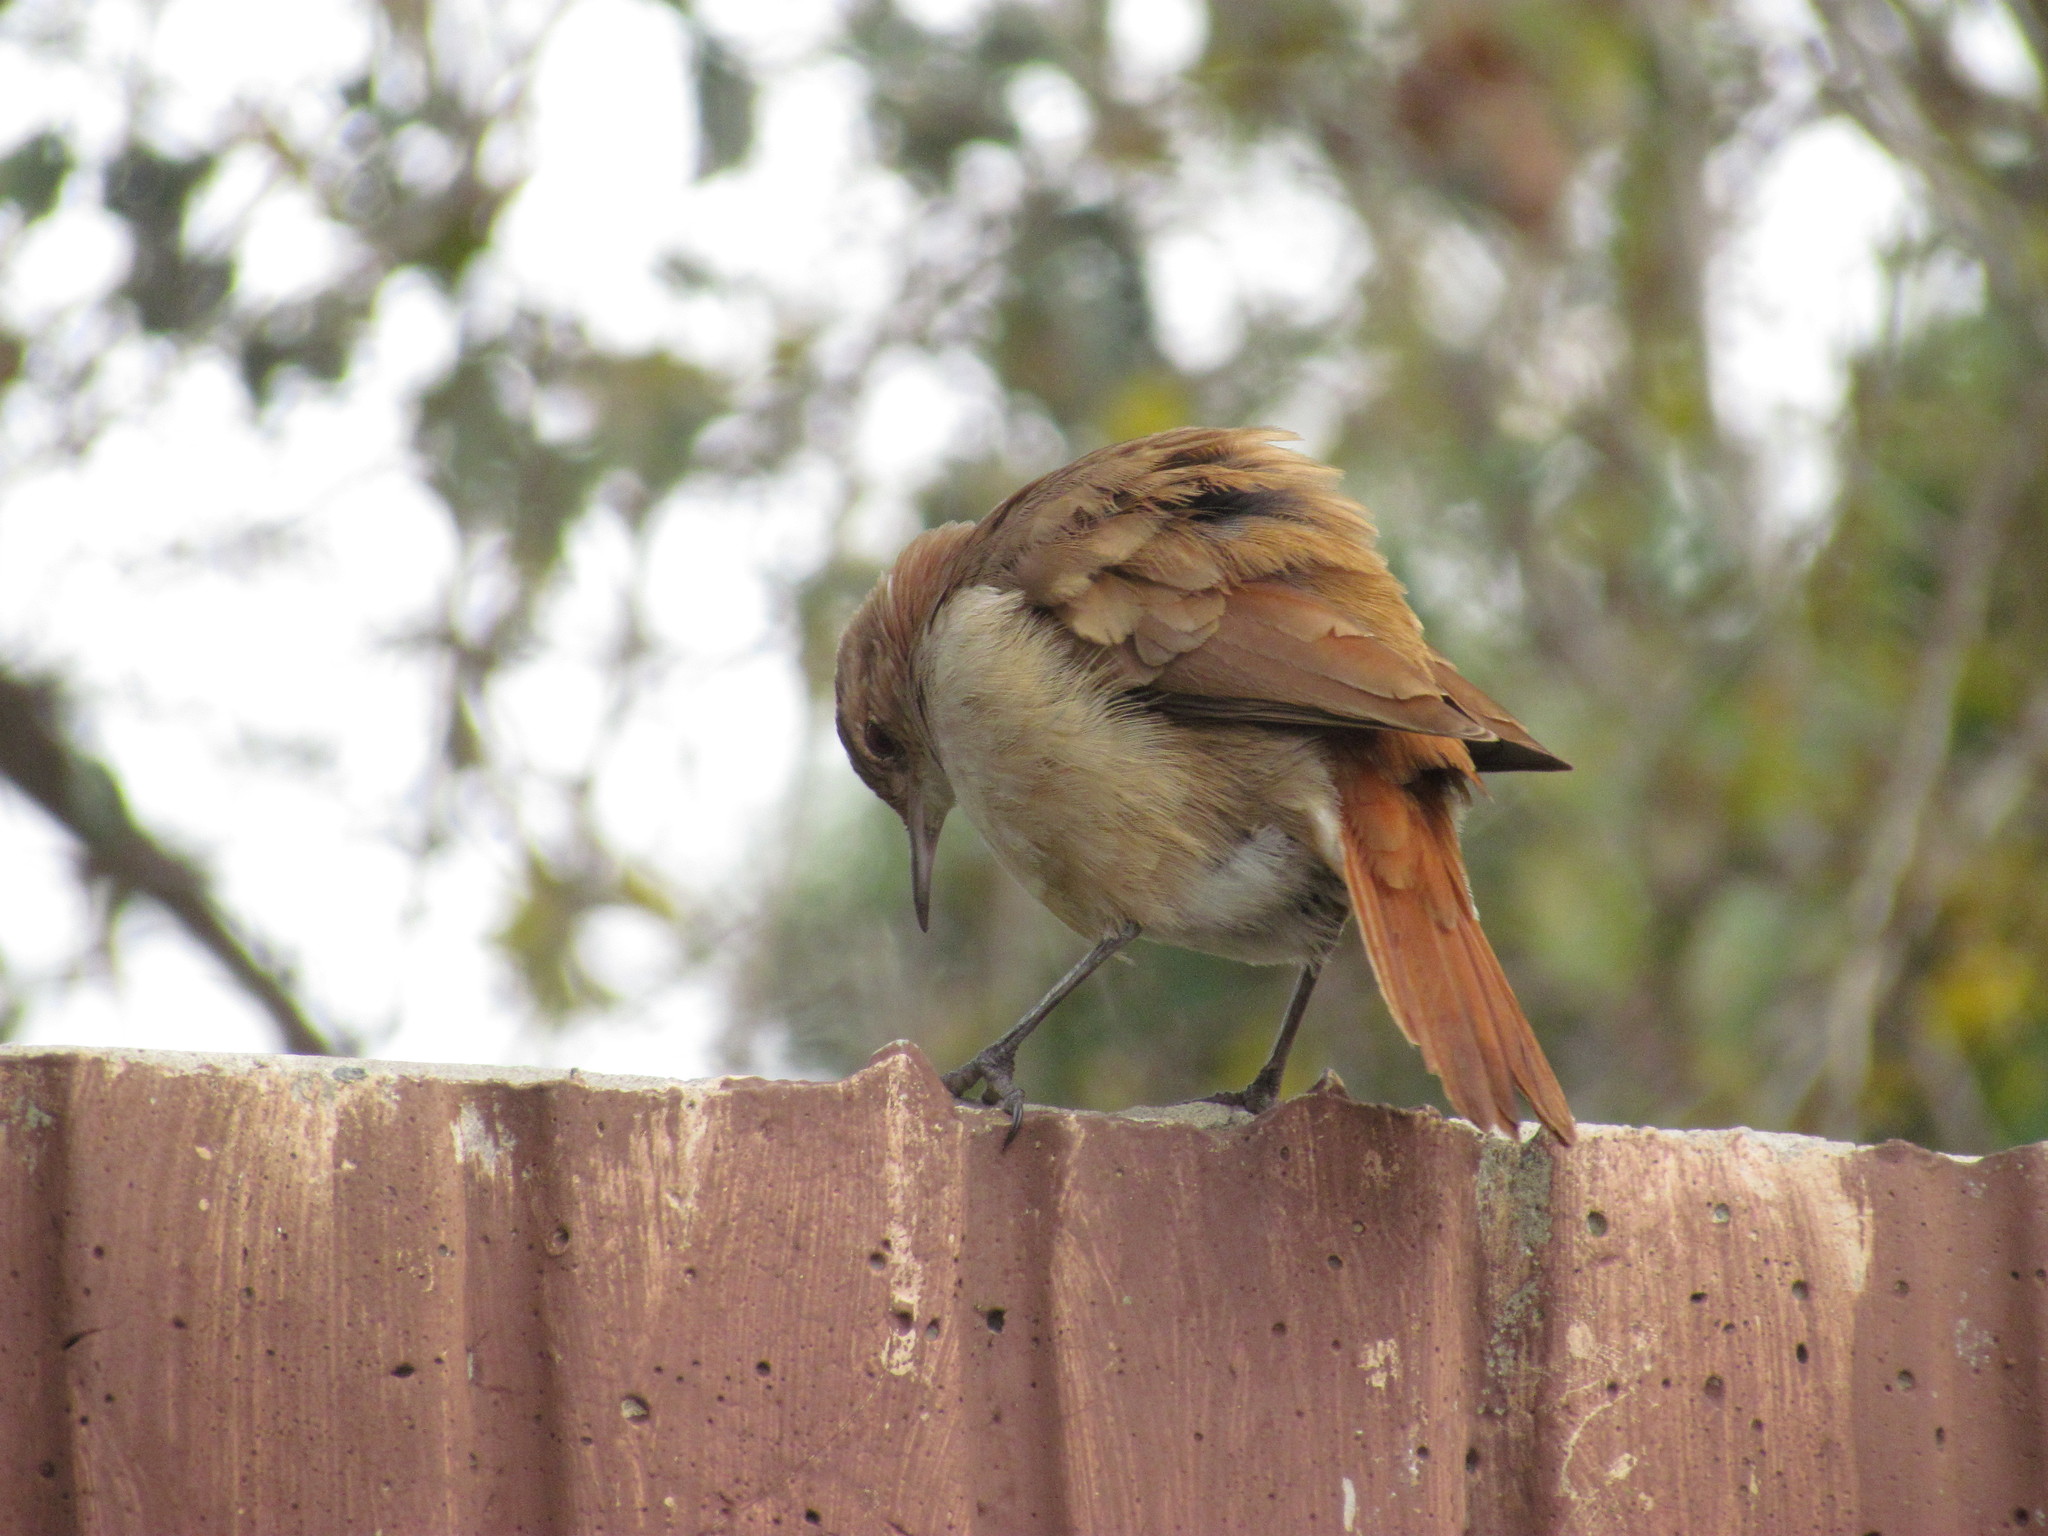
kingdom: Animalia
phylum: Chordata
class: Aves
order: Passeriformes
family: Furnariidae
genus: Furnarius
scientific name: Furnarius rufus
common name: Rufous hornero
